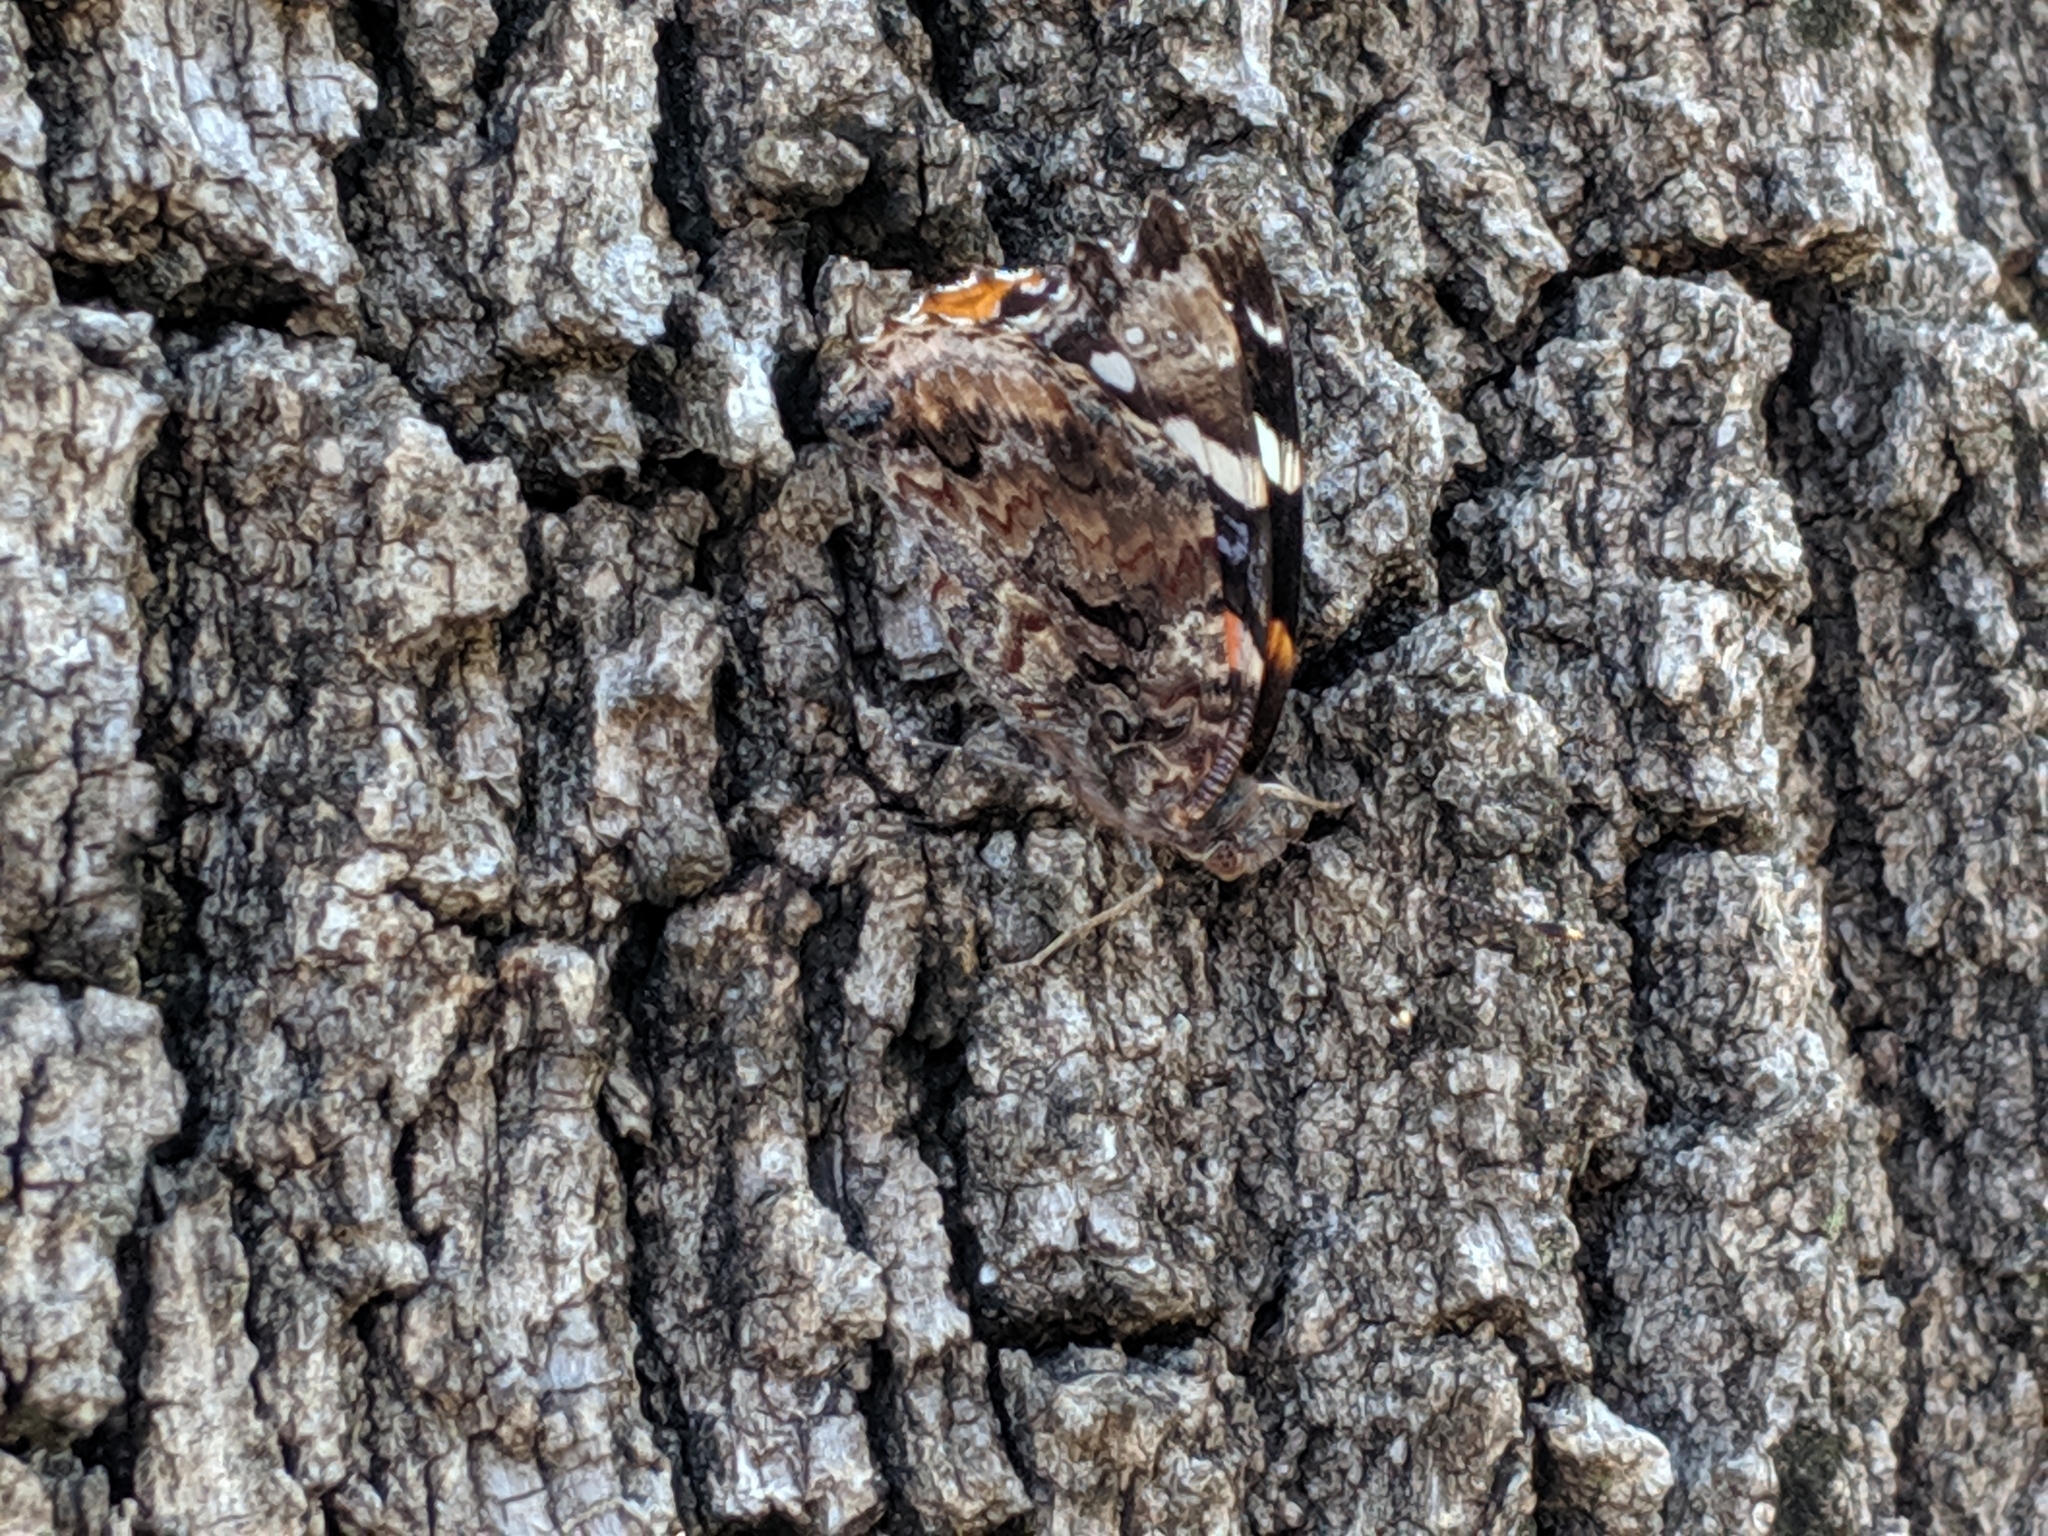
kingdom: Animalia
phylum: Arthropoda
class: Insecta
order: Lepidoptera
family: Nymphalidae
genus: Vanessa
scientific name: Vanessa atalanta
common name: Red admiral
